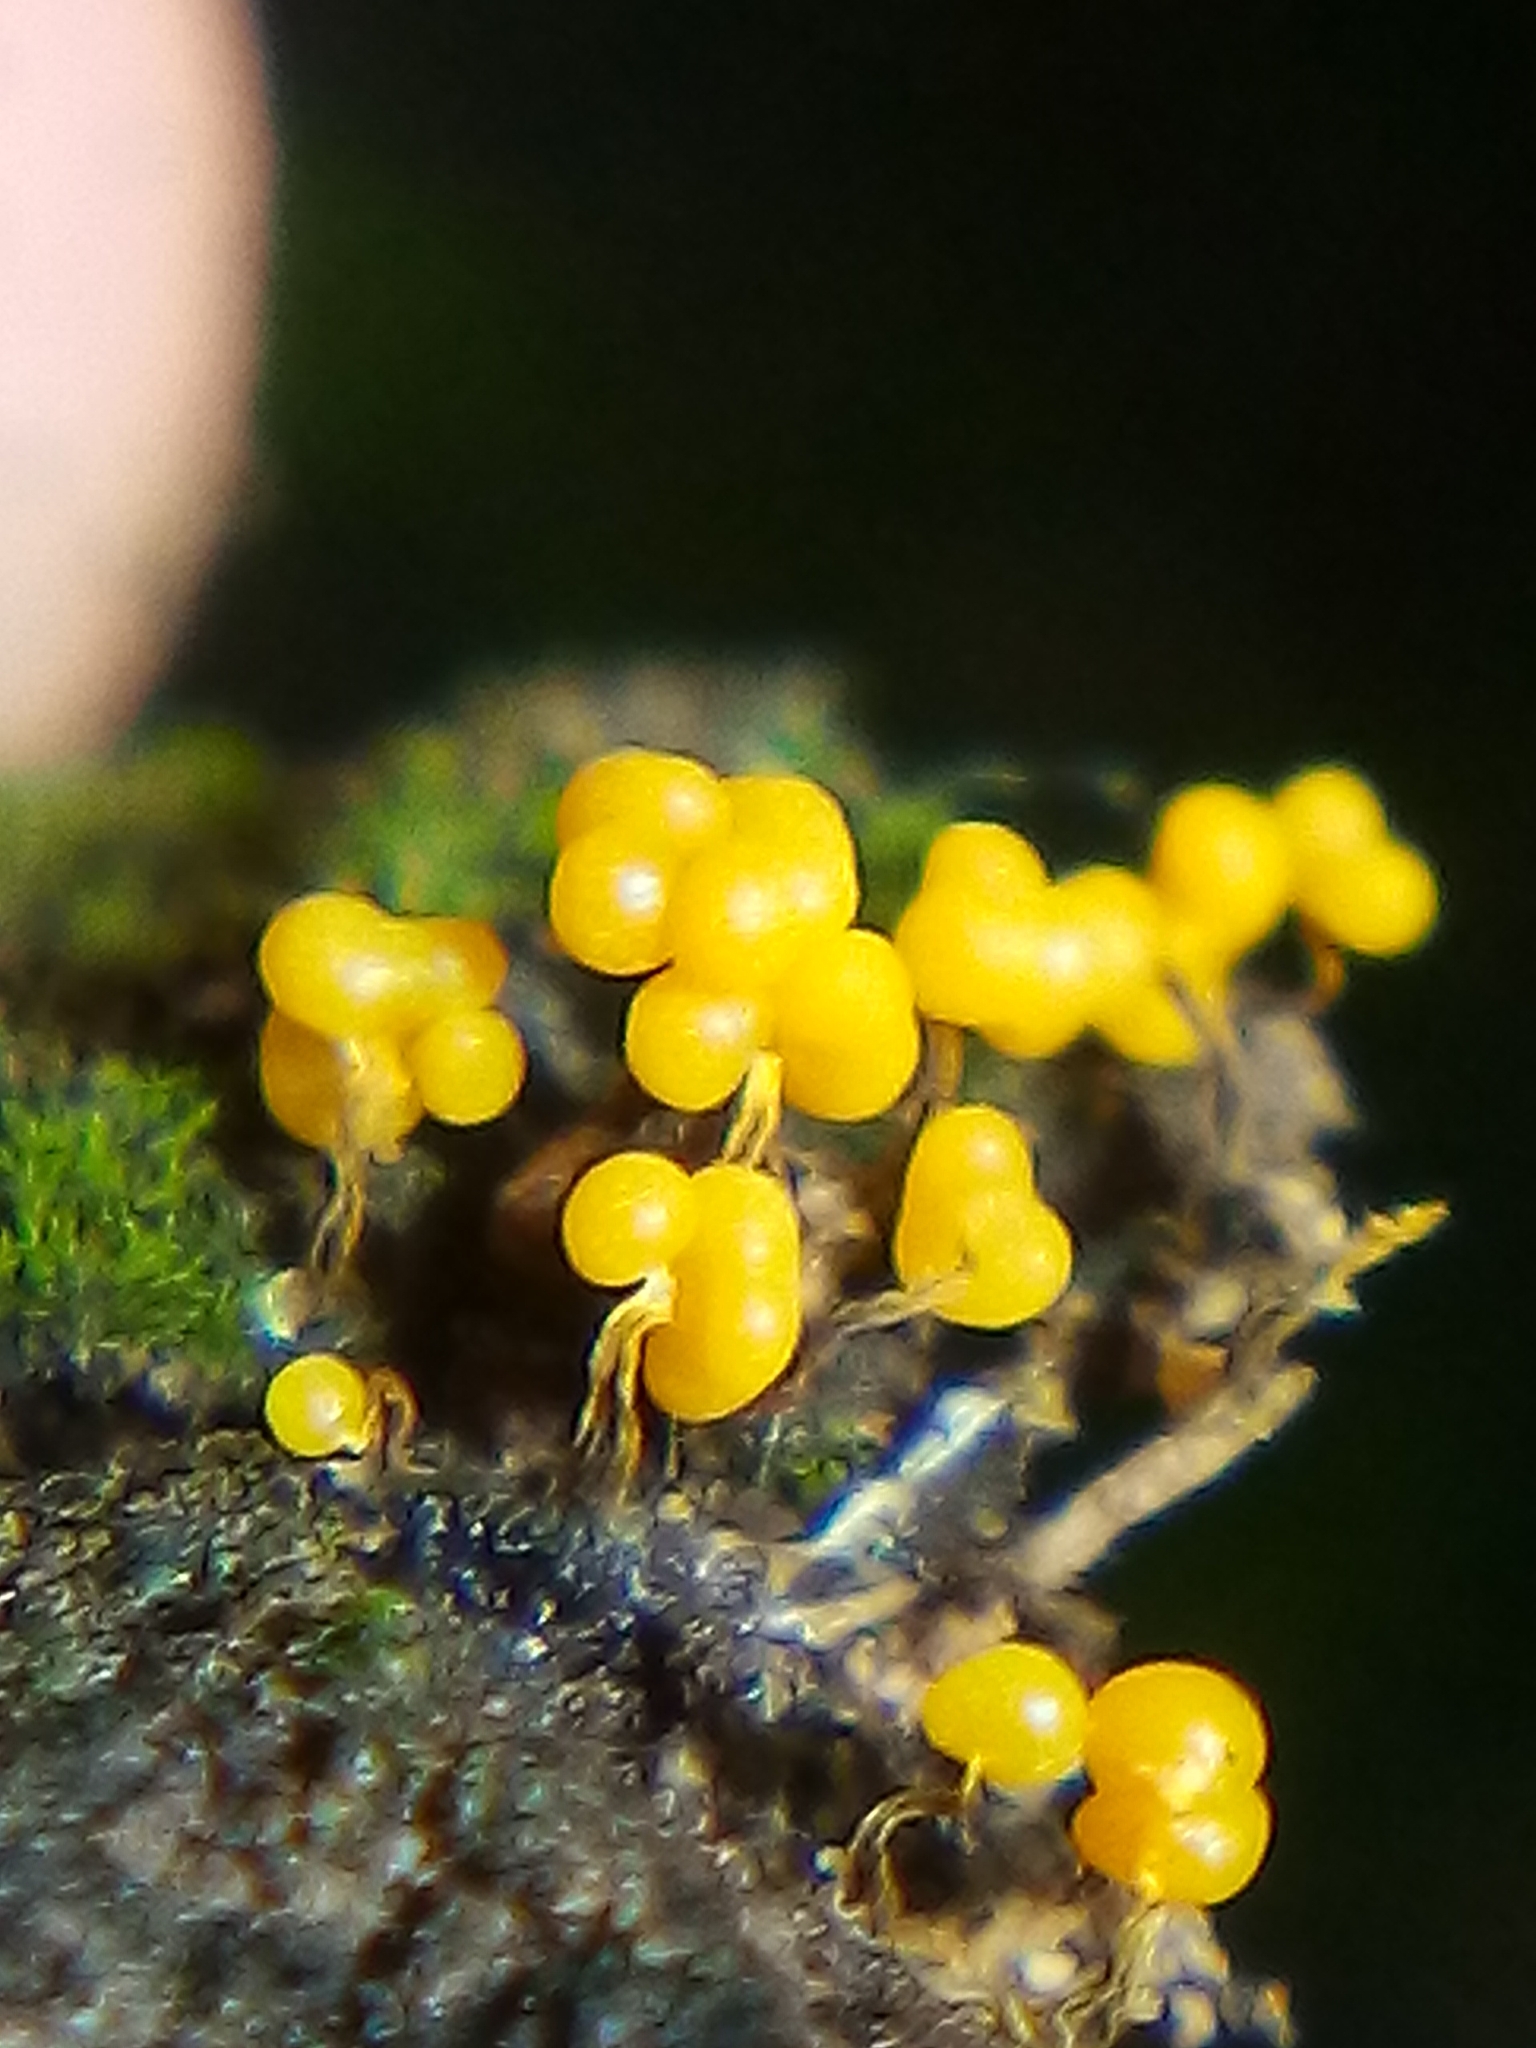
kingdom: Protozoa
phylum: Mycetozoa
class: Myxomycetes
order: Physarales
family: Physaraceae
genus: Badhamia
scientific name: Badhamia utricularis
